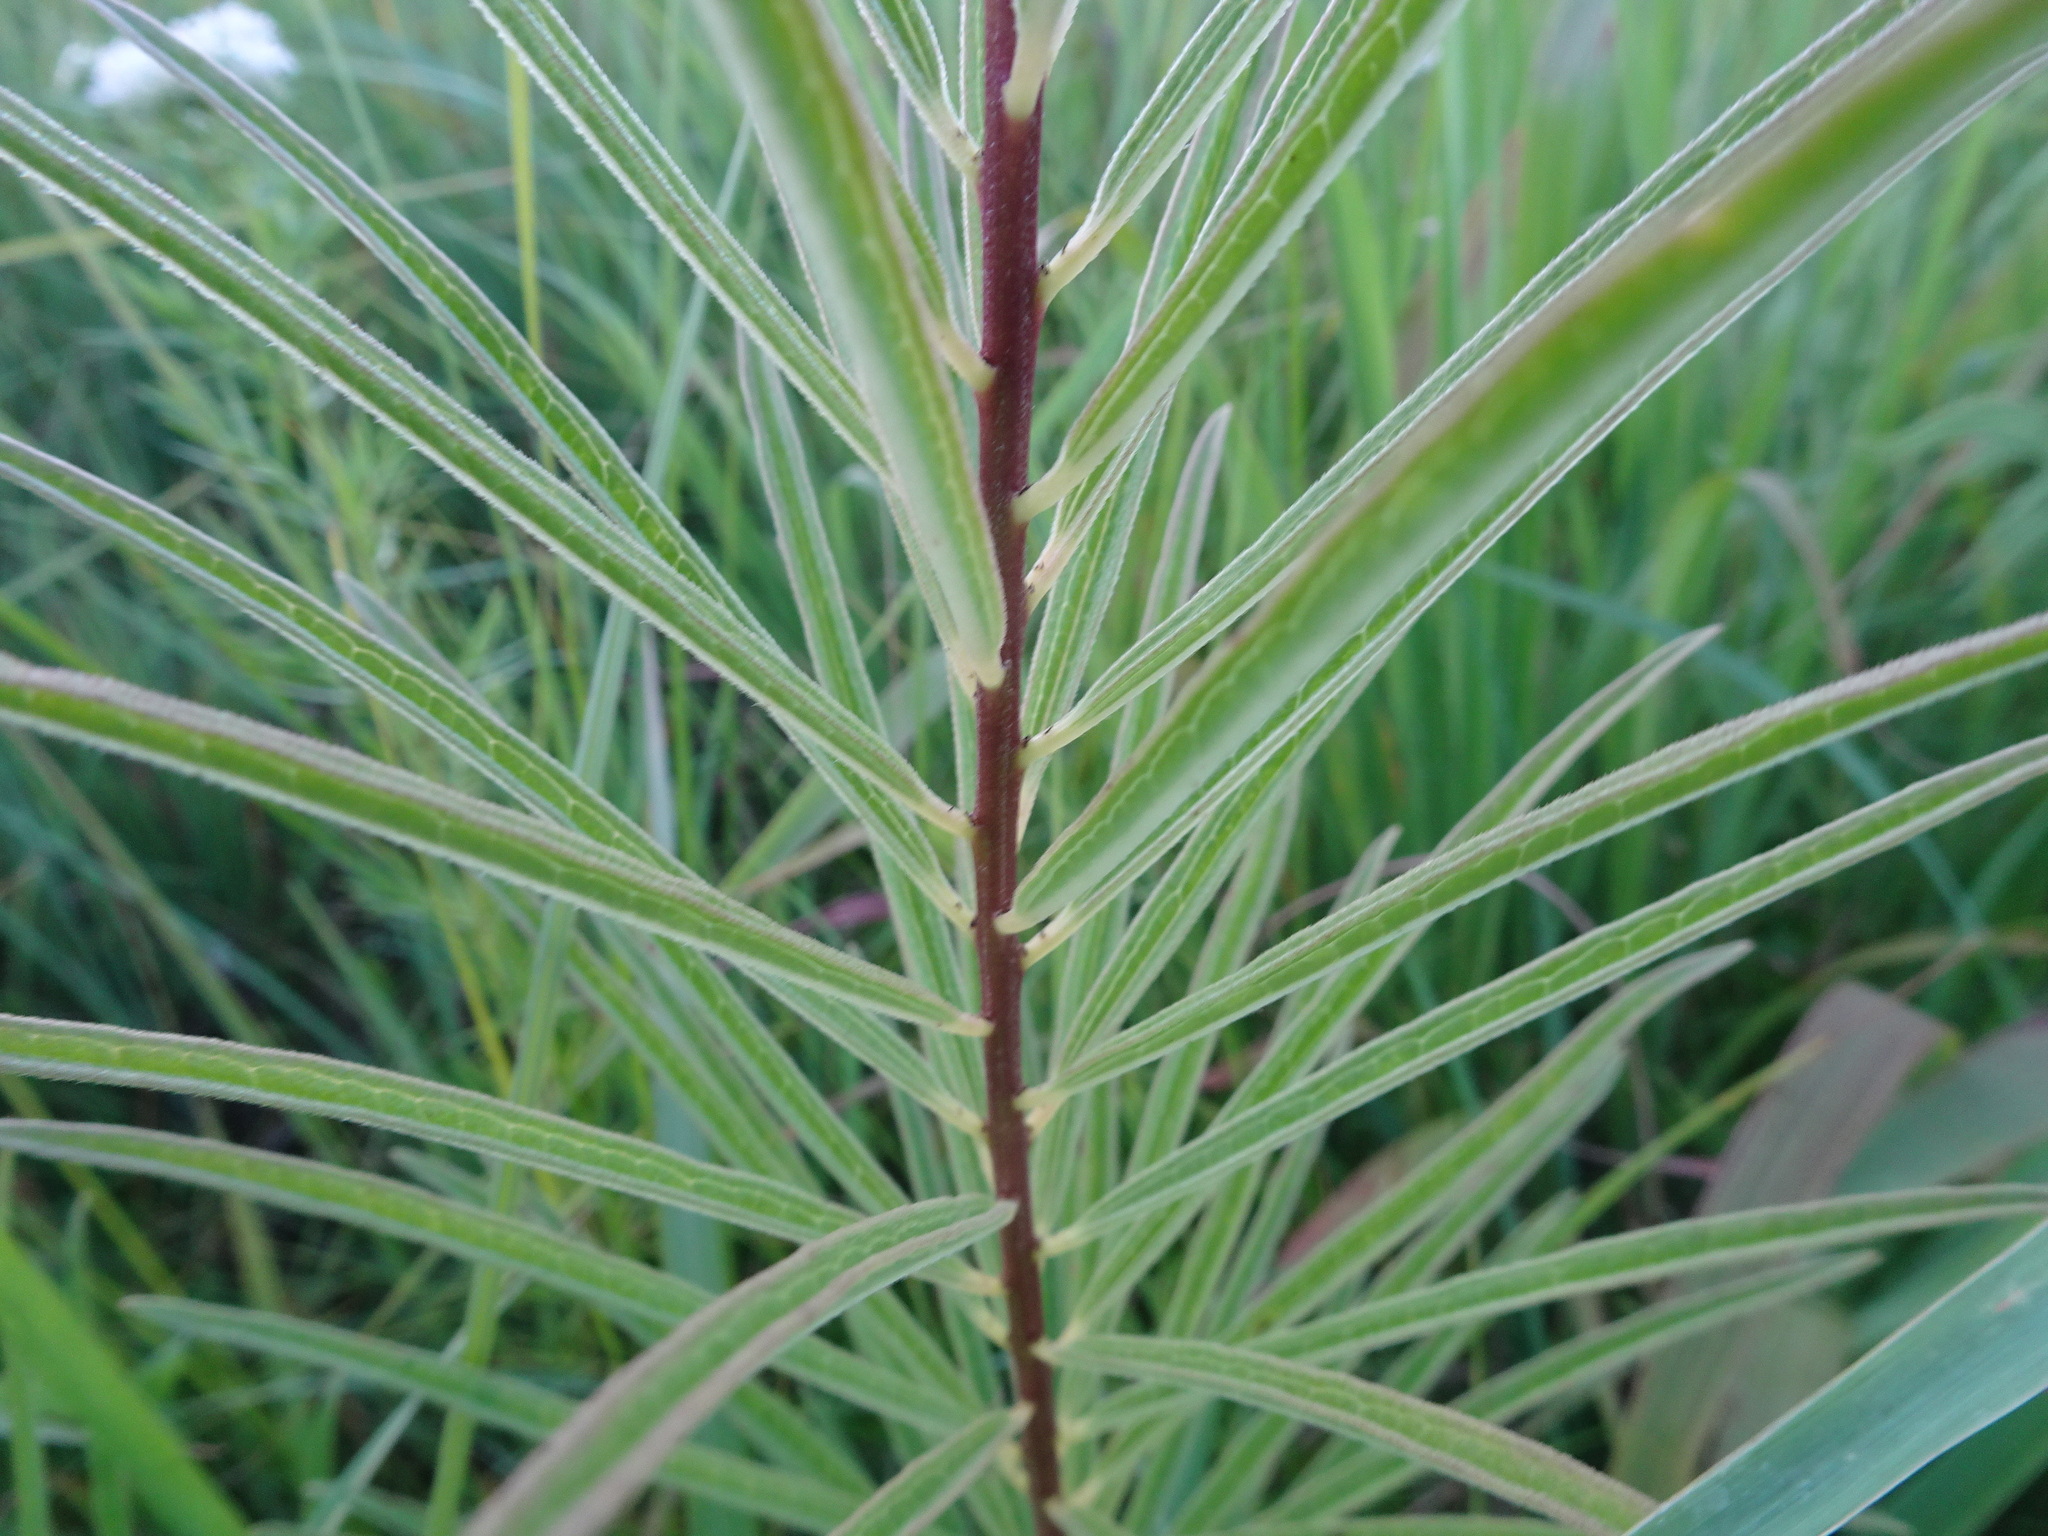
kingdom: Plantae
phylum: Tracheophyta
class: Magnoliopsida
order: Gentianales
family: Apocynaceae
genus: Asclepias
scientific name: Asclepias hirtella
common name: Prairie milkweed
